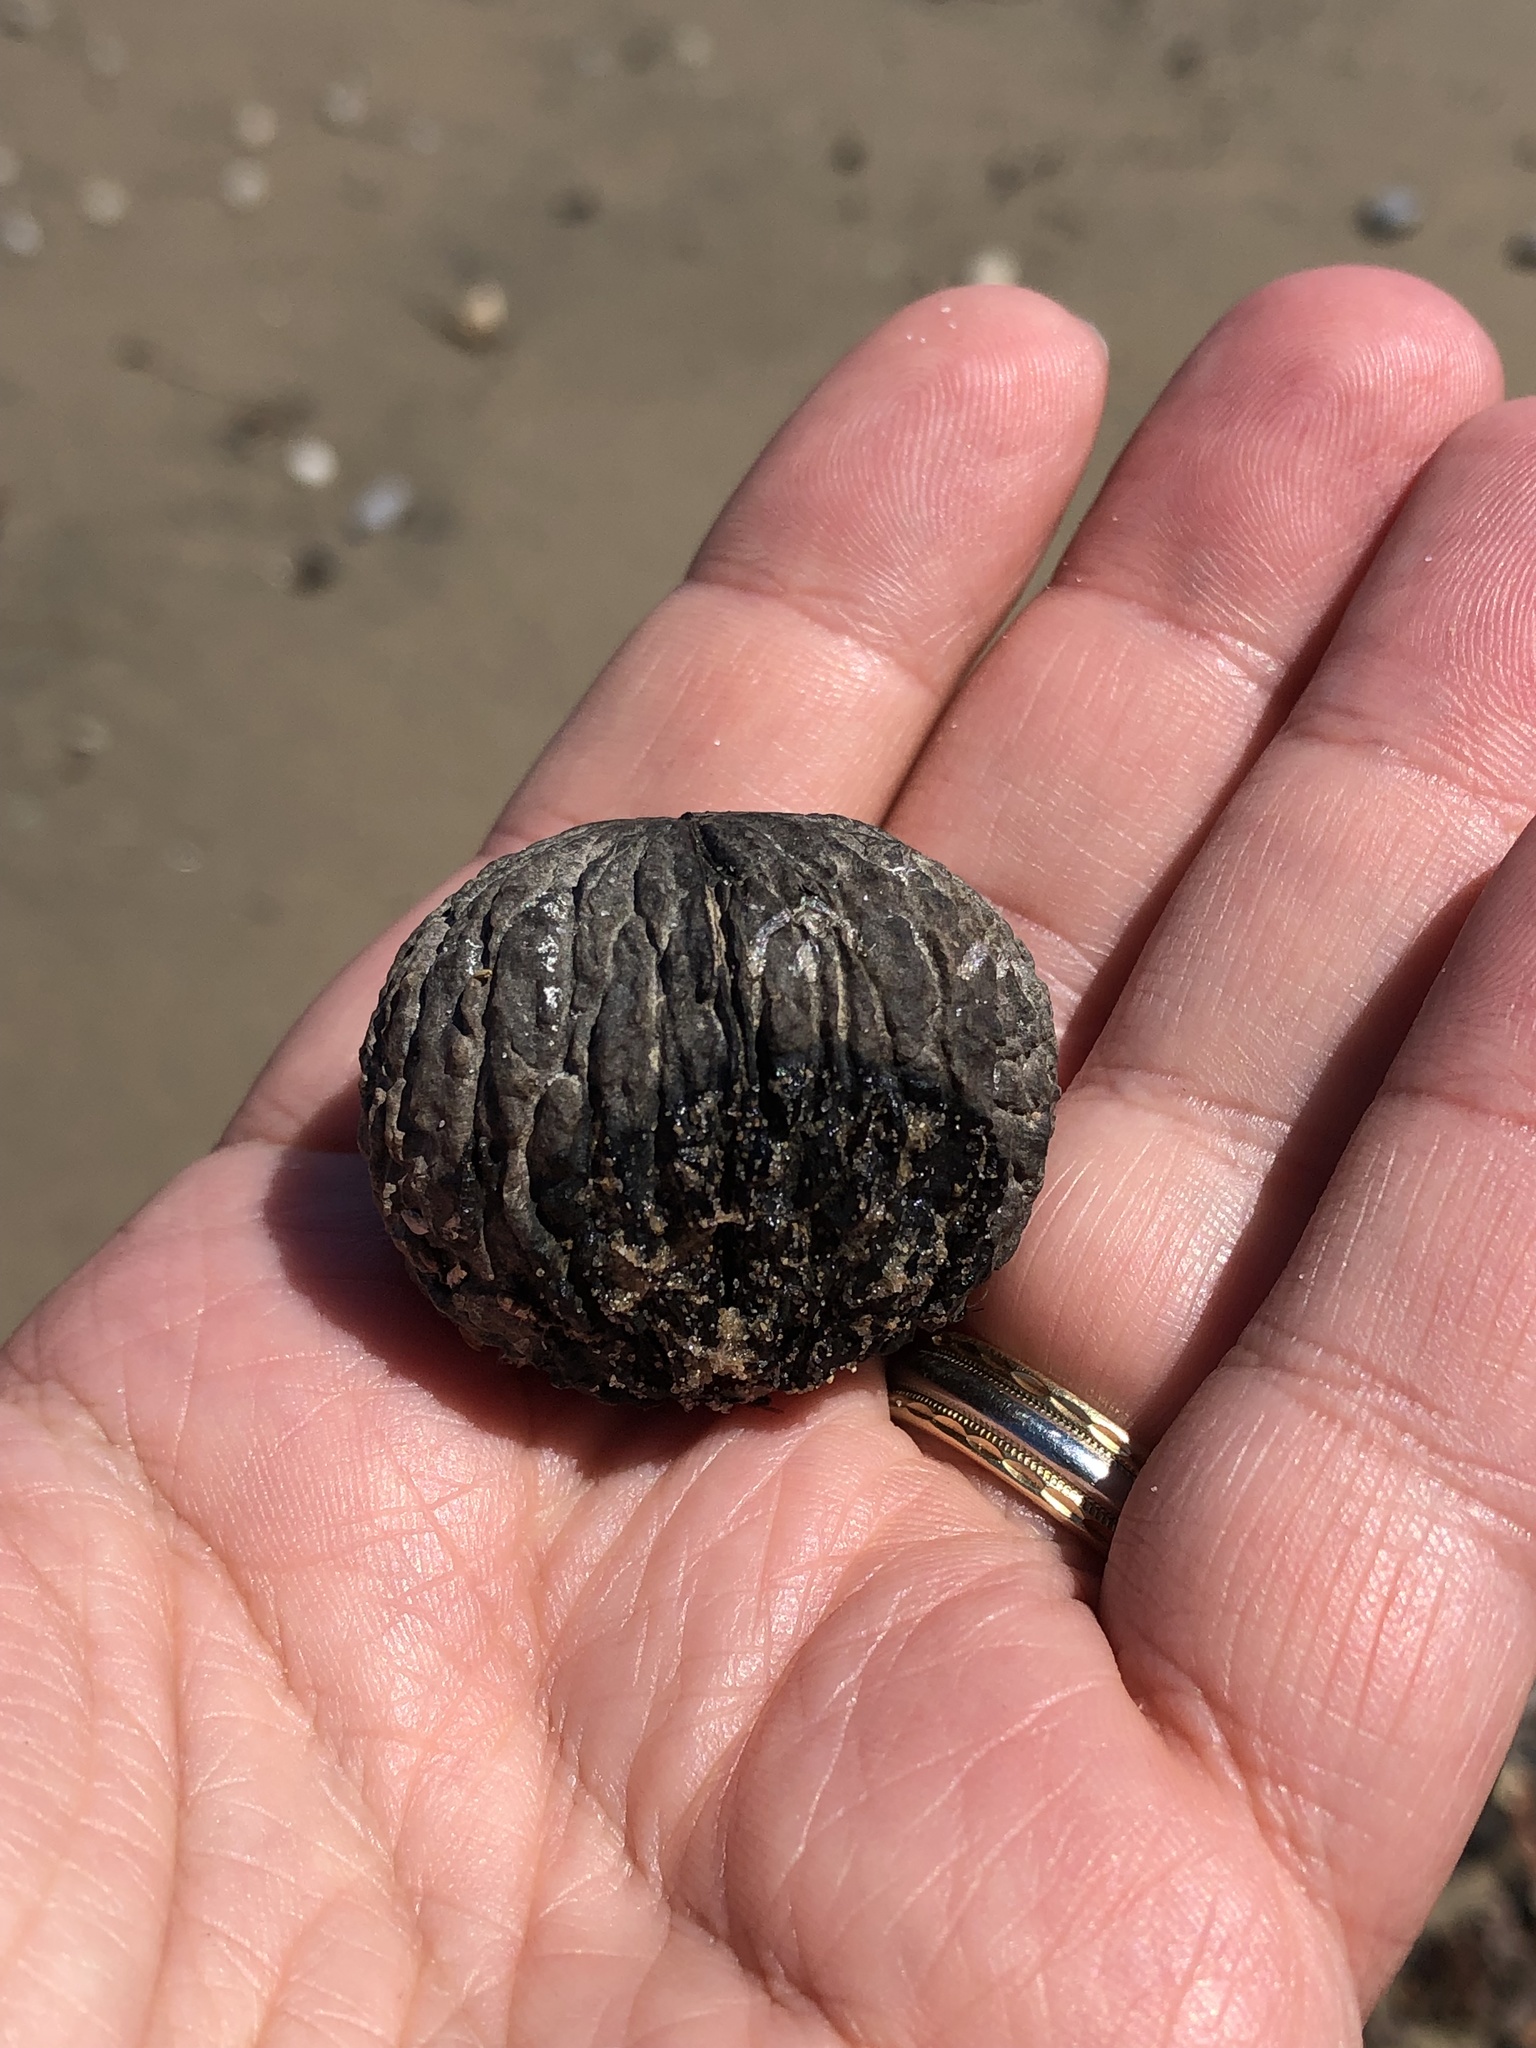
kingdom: Plantae
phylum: Tracheophyta
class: Magnoliopsida
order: Fagales
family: Juglandaceae
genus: Juglans
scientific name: Juglans nigra
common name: Black walnut
